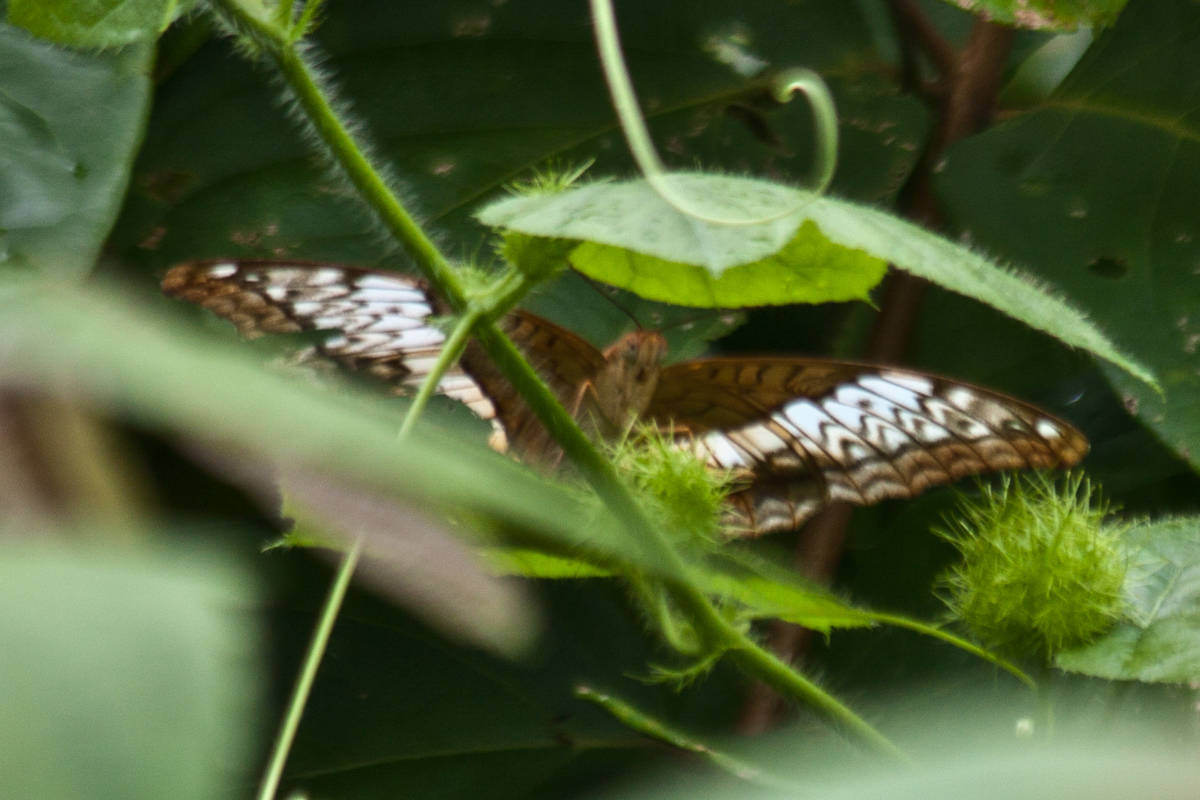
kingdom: Animalia
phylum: Arthropoda
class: Insecta
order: Lepidoptera
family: Nymphalidae
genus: Kallima
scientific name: Kallima sylvia
